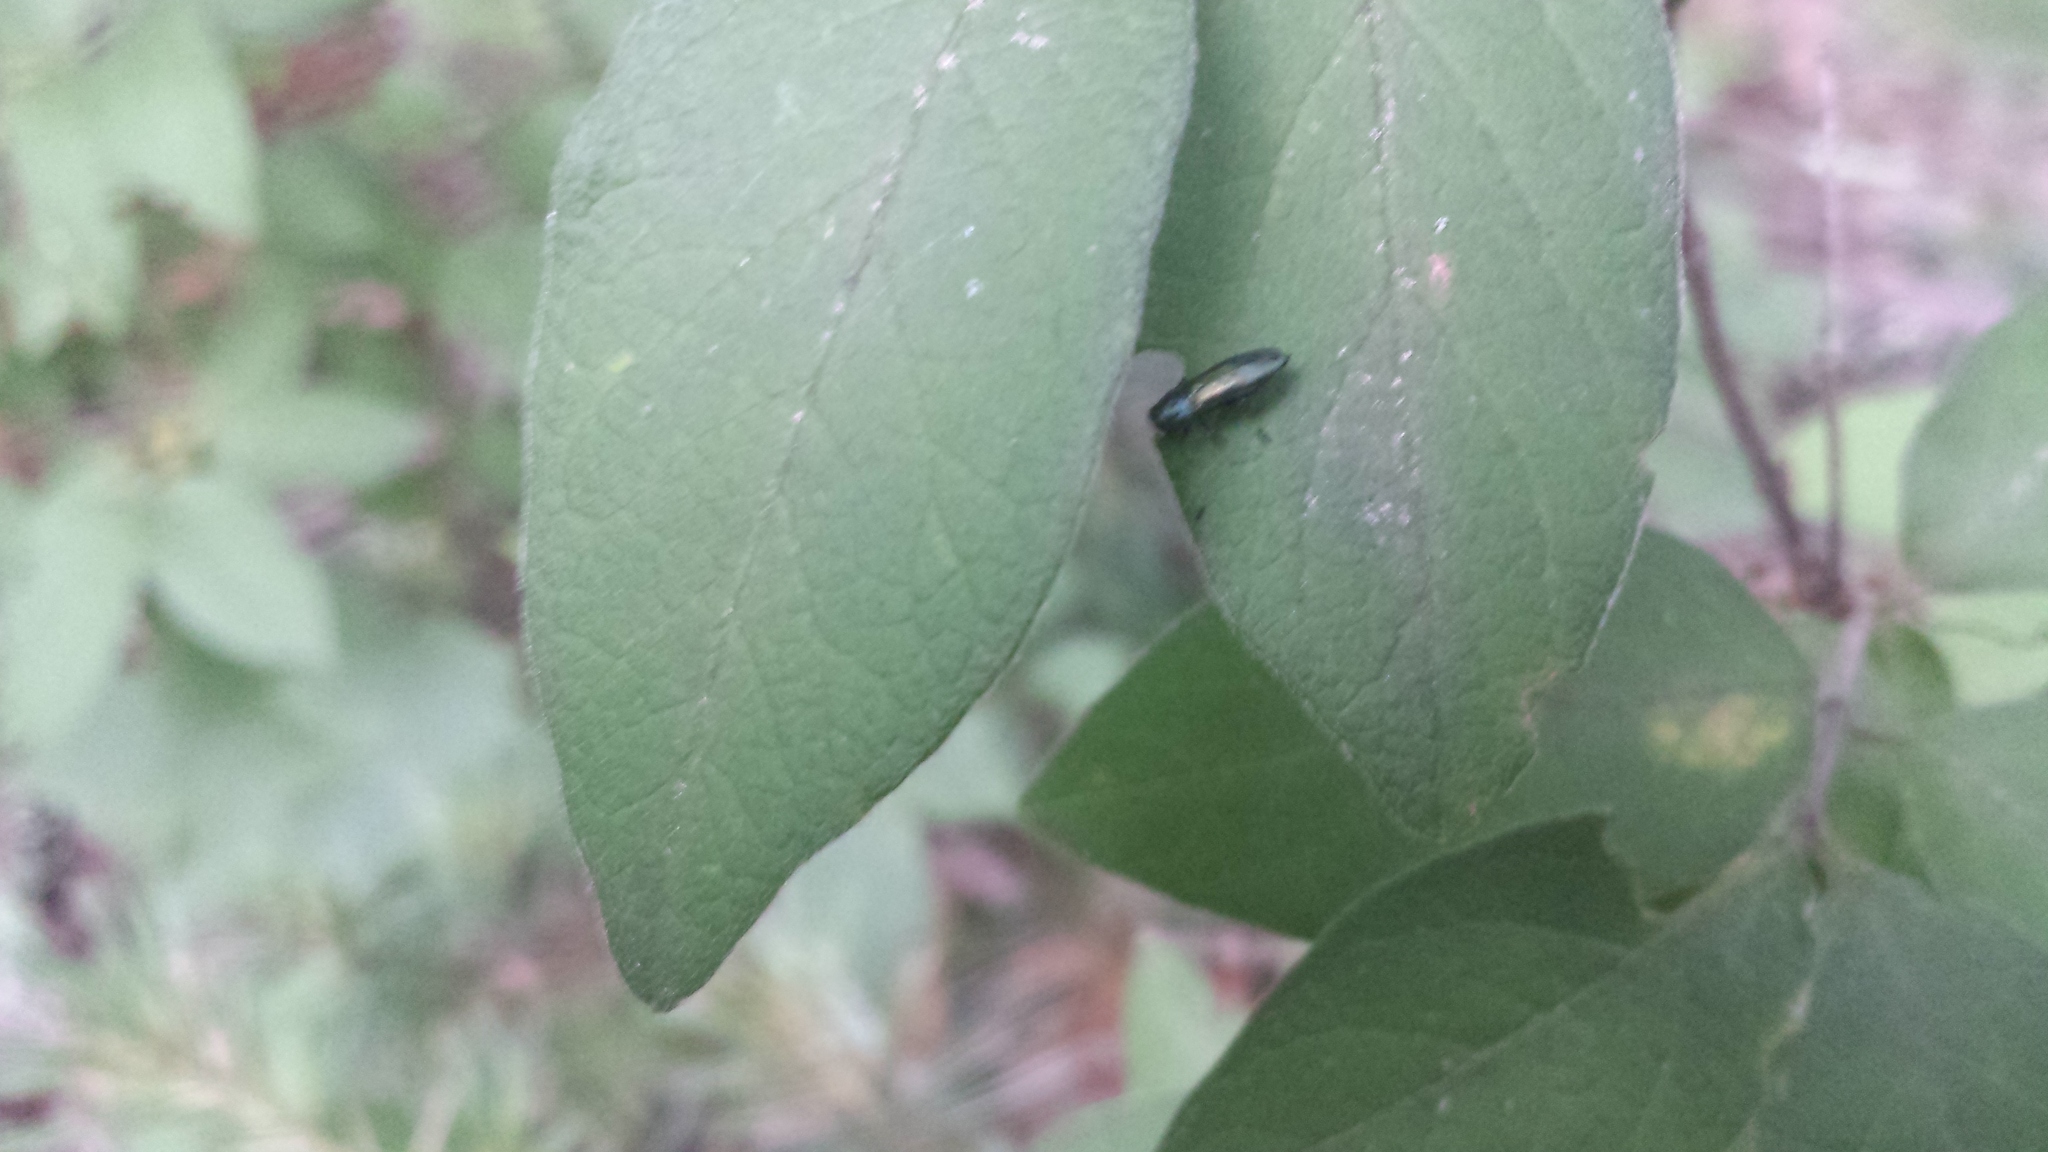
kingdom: Animalia
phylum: Arthropoda
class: Insecta
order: Coleoptera
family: Buprestidae
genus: Agrilus
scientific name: Agrilus cyanescens
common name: Bluish borer beetle
